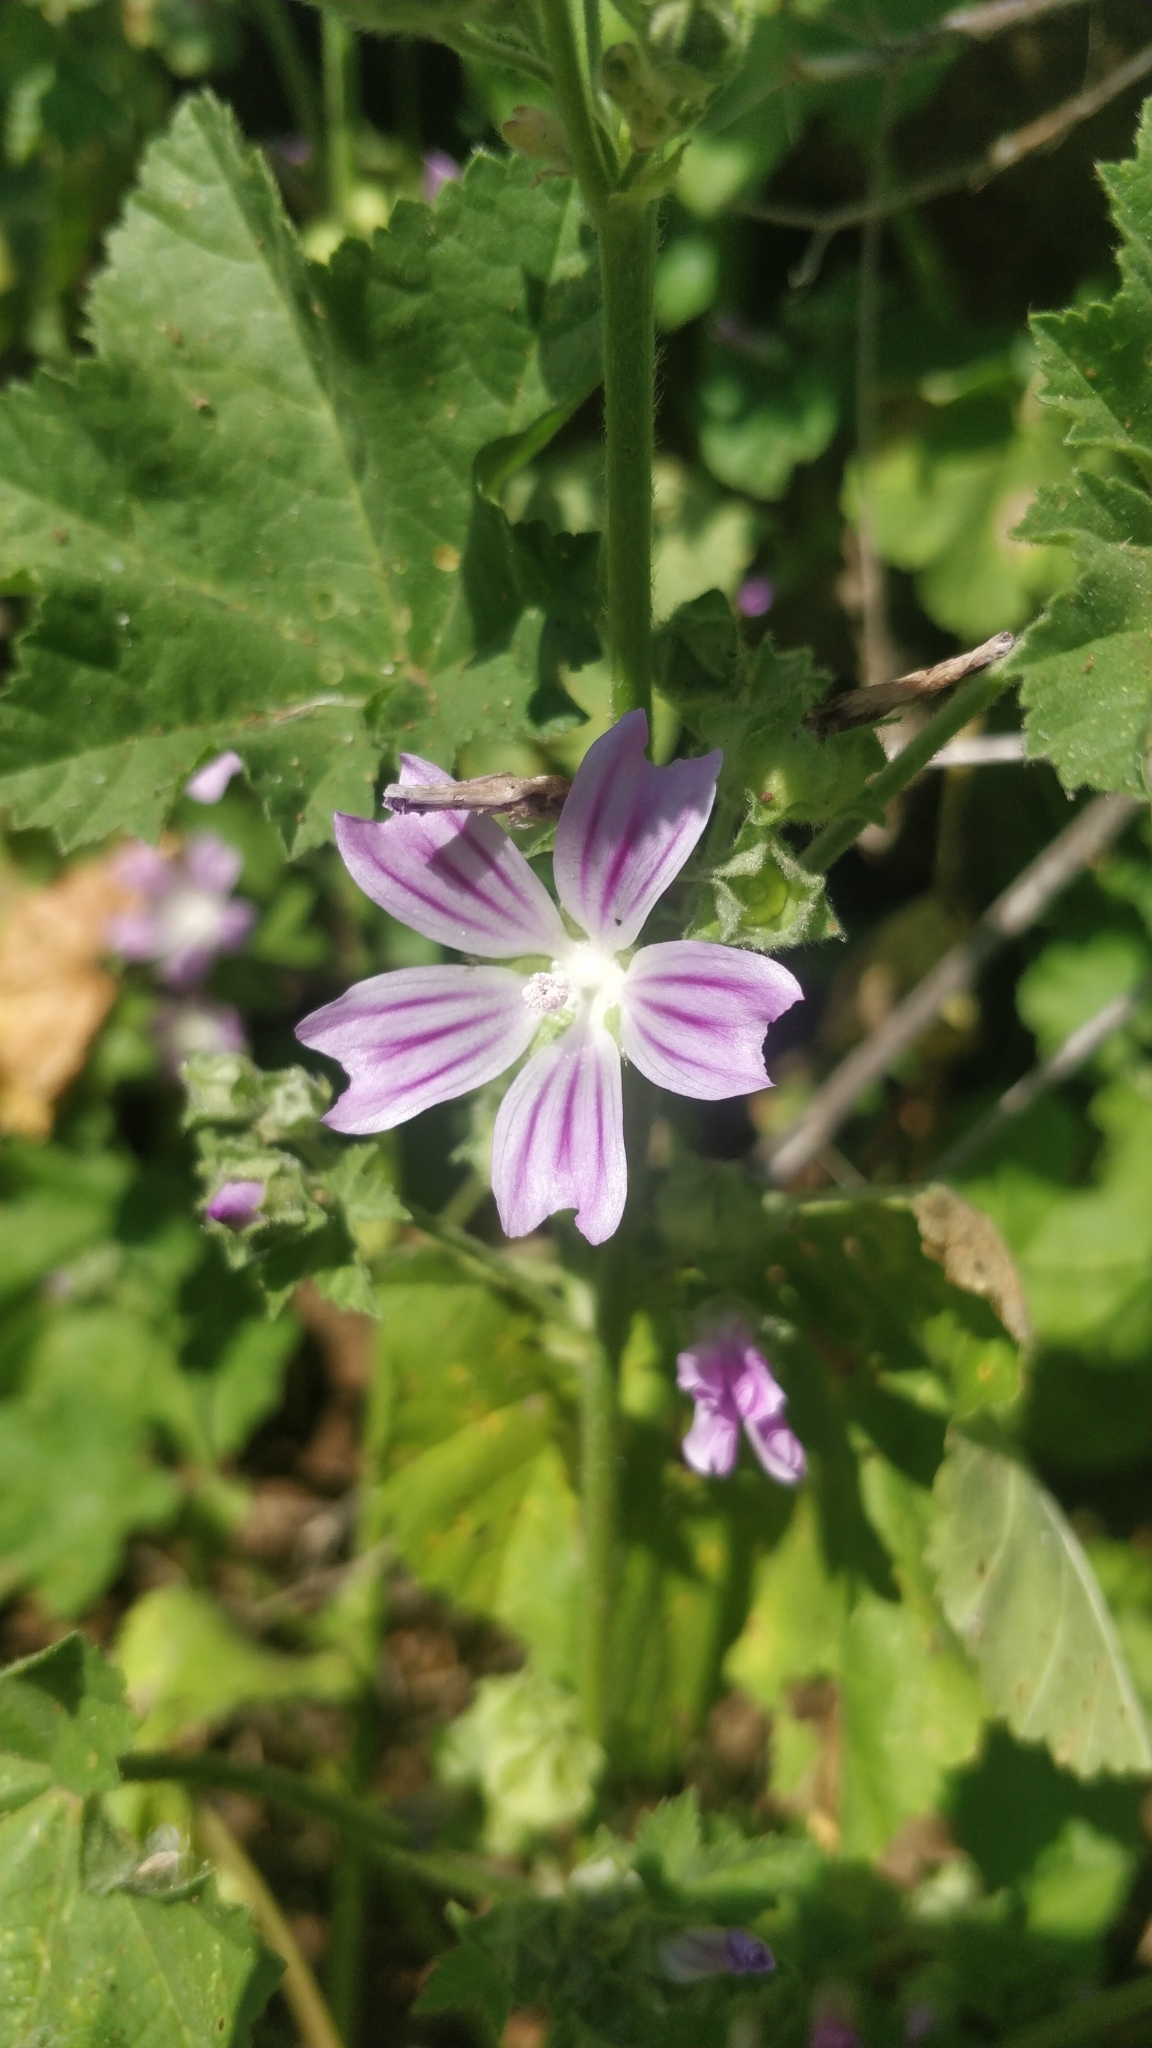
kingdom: Plantae
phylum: Tracheophyta
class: Magnoliopsida
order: Malvales
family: Malvaceae
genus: Malva
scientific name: Malva multiflora
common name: Cheeseweed
